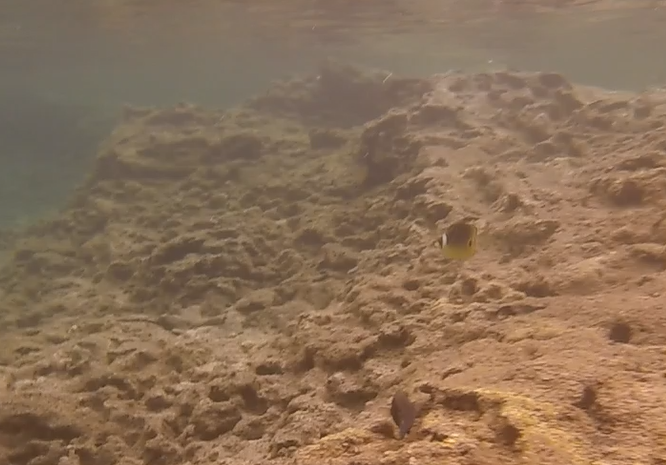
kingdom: Animalia
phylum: Chordata
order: Perciformes
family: Chaetodontidae
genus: Chaetodon
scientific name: Chaetodon lunula
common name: Raccoon butterflyfish
